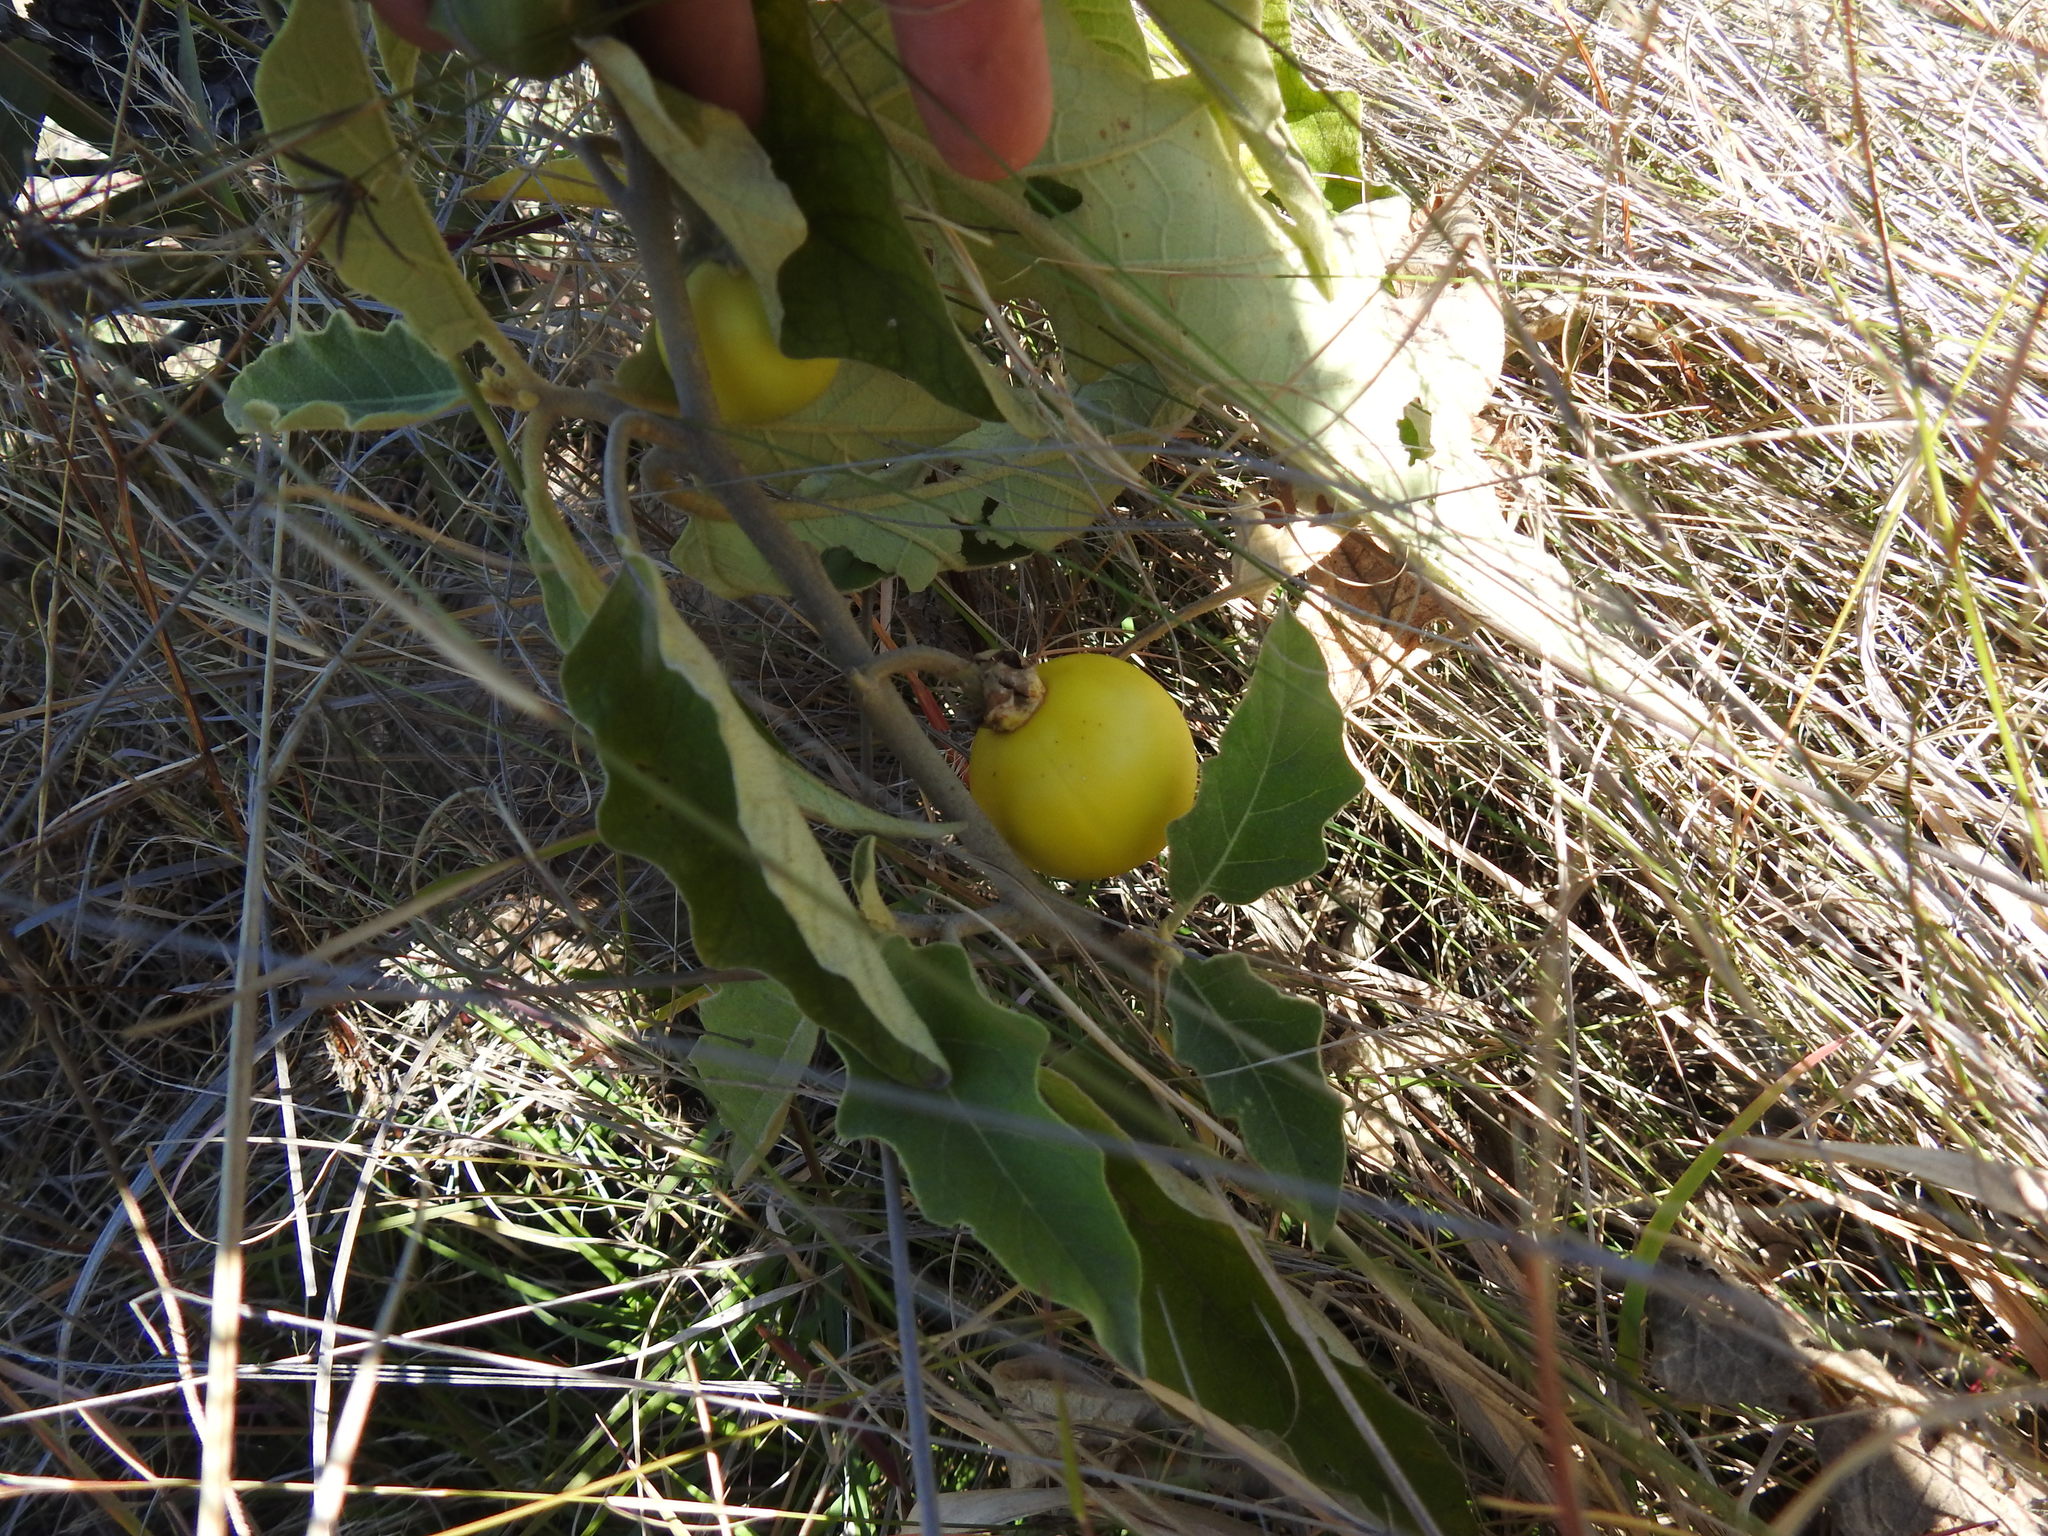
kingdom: Plantae
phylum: Tracheophyta
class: Magnoliopsida
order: Solanales
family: Solanaceae
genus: Solanum
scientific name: Solanum lichtensteinii
